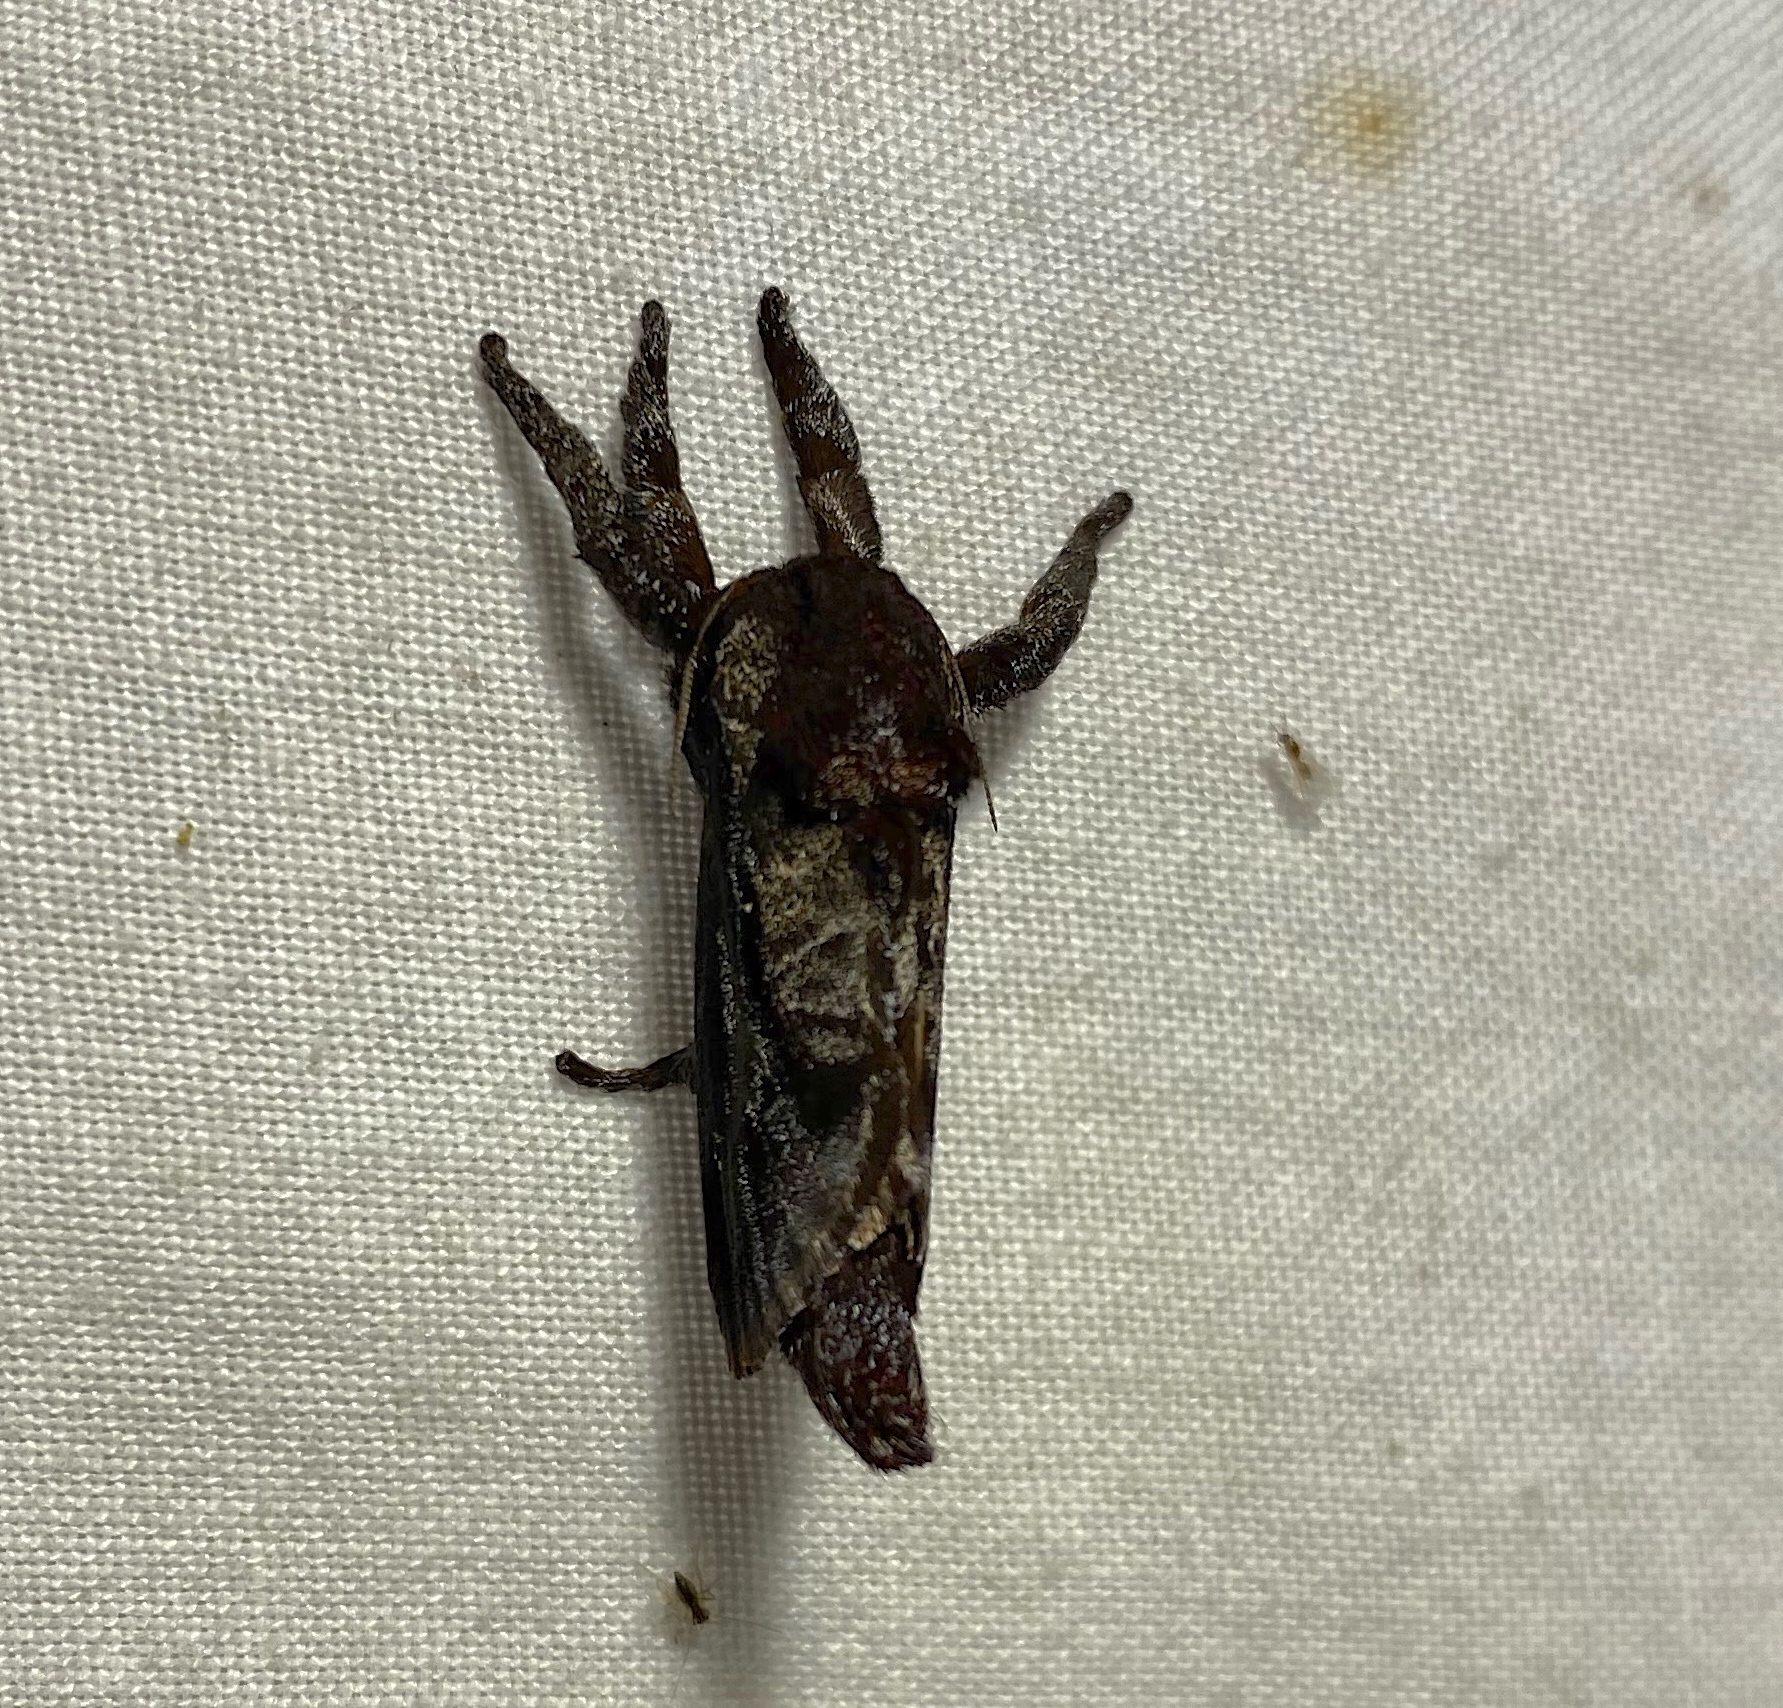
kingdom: Animalia
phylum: Arthropoda
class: Insecta
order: Lepidoptera
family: Limacodidae
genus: Sibine
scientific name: Sibine nesea
